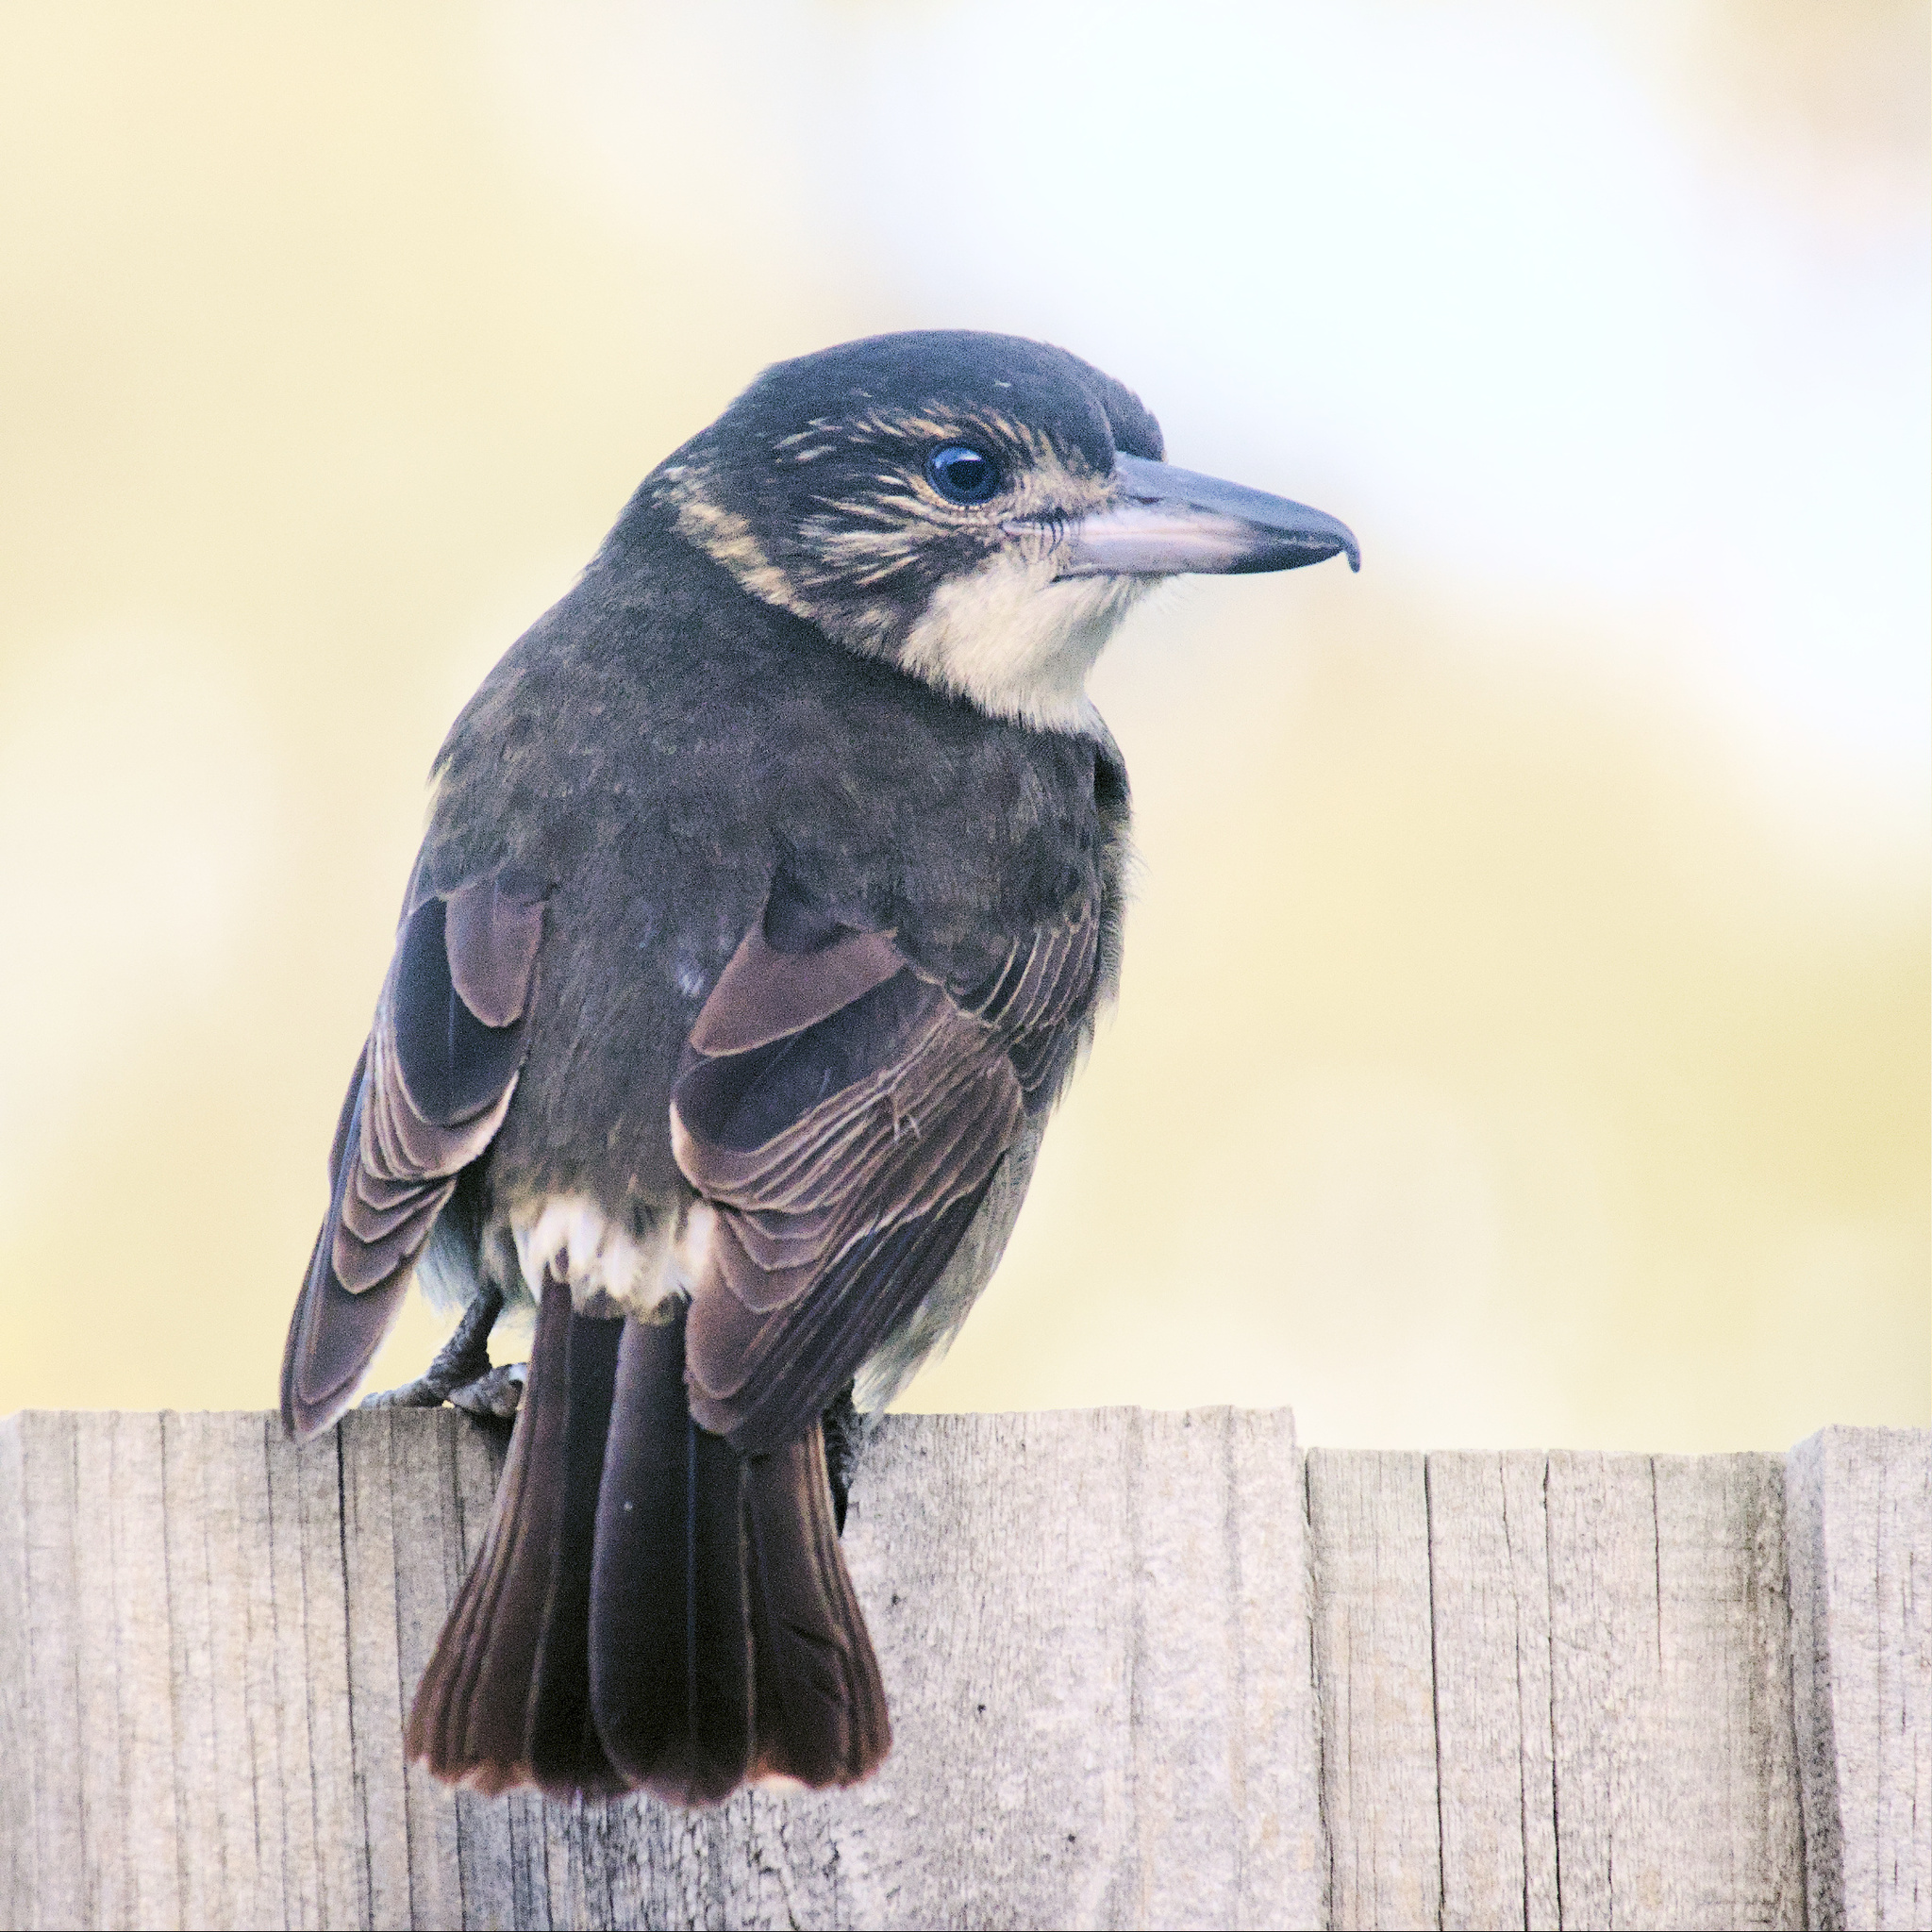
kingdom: Animalia
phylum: Chordata
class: Aves
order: Passeriformes
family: Cracticidae
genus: Cracticus
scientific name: Cracticus torquatus
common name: Grey butcherbird
